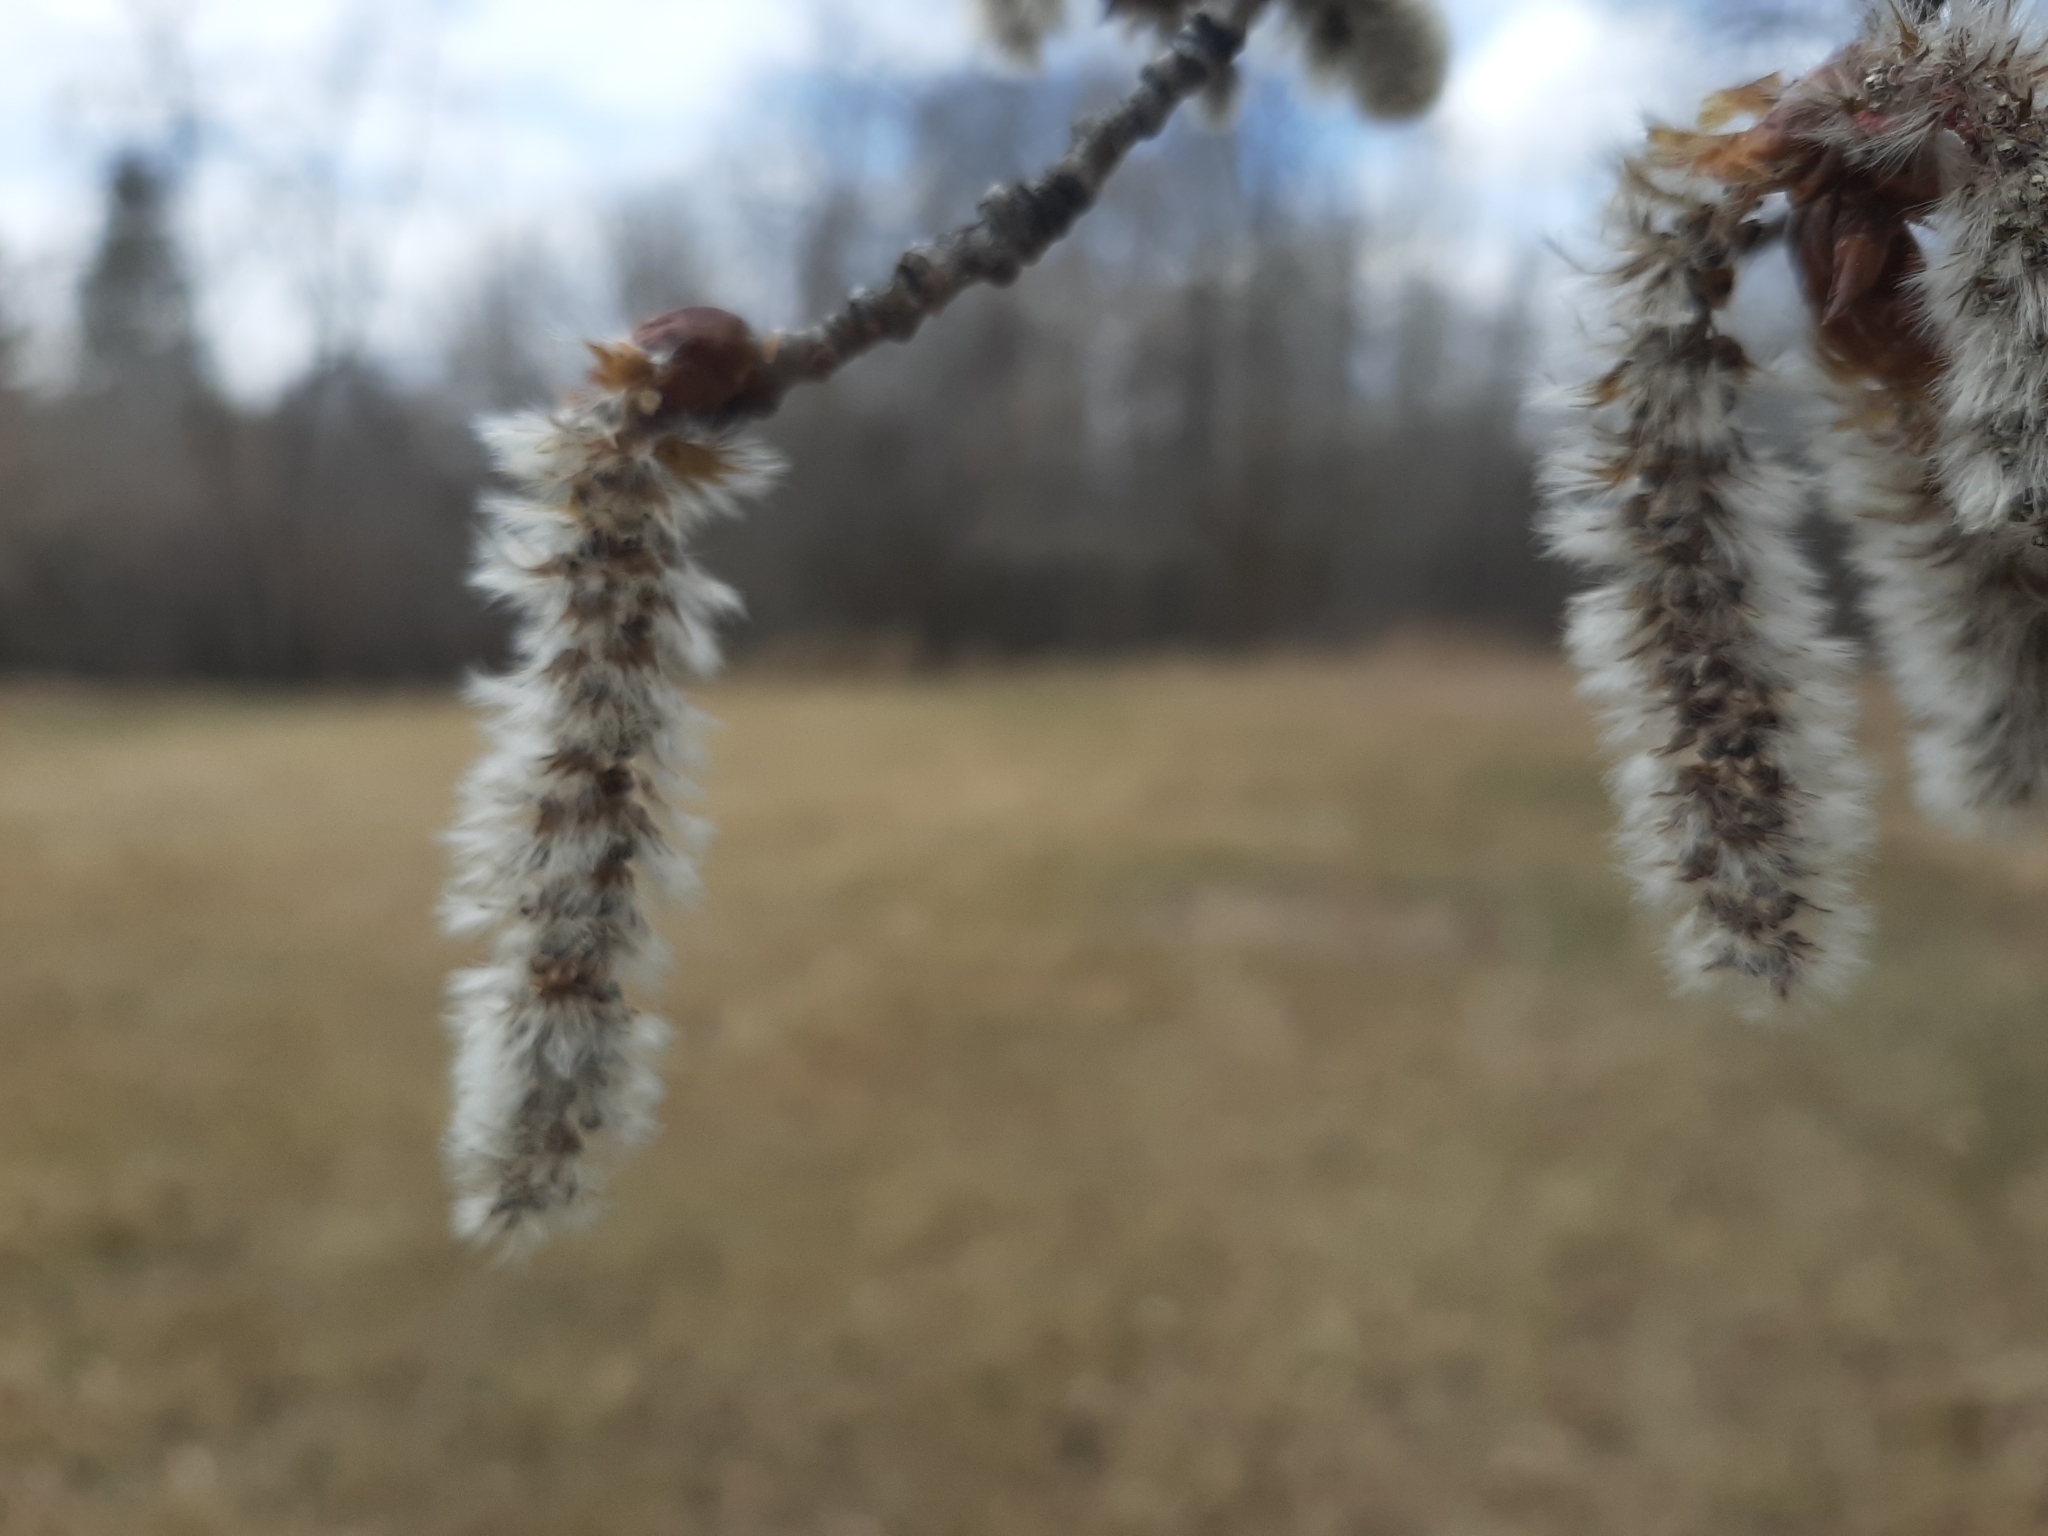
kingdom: Plantae
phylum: Tracheophyta
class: Magnoliopsida
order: Malpighiales
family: Salicaceae
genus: Populus
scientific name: Populus tremuloides
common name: Quaking aspen
